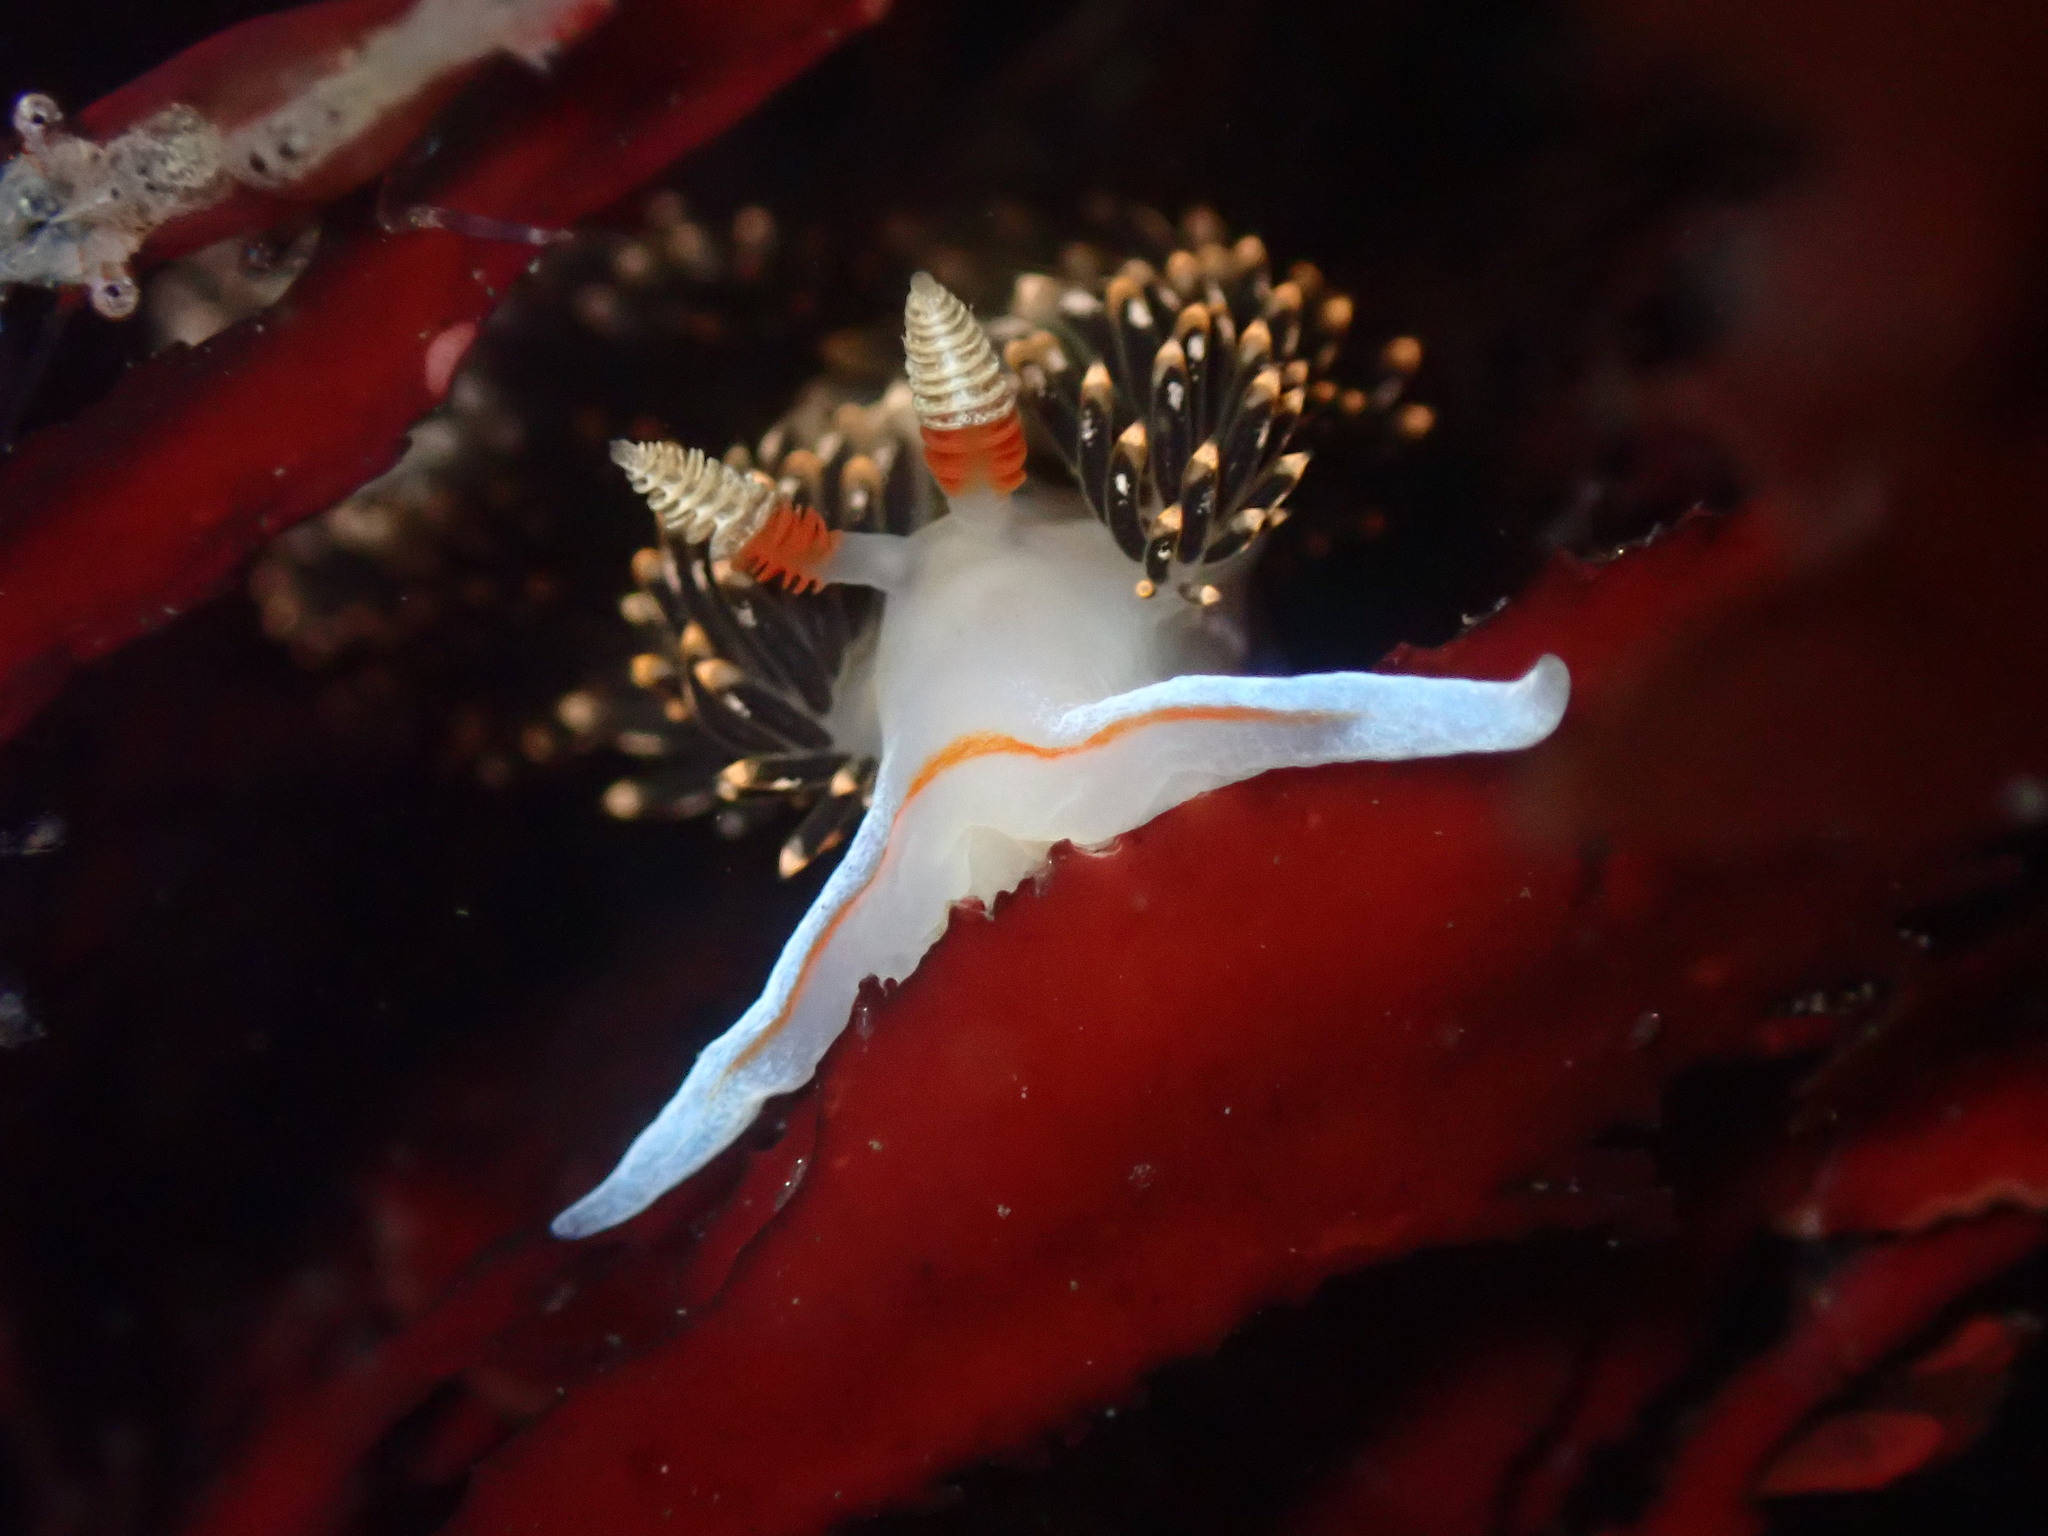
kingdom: Animalia
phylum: Mollusca
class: Gastropoda
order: Nudibranchia
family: Facelinidae
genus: Phidiana
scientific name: Phidiana hiltoni
